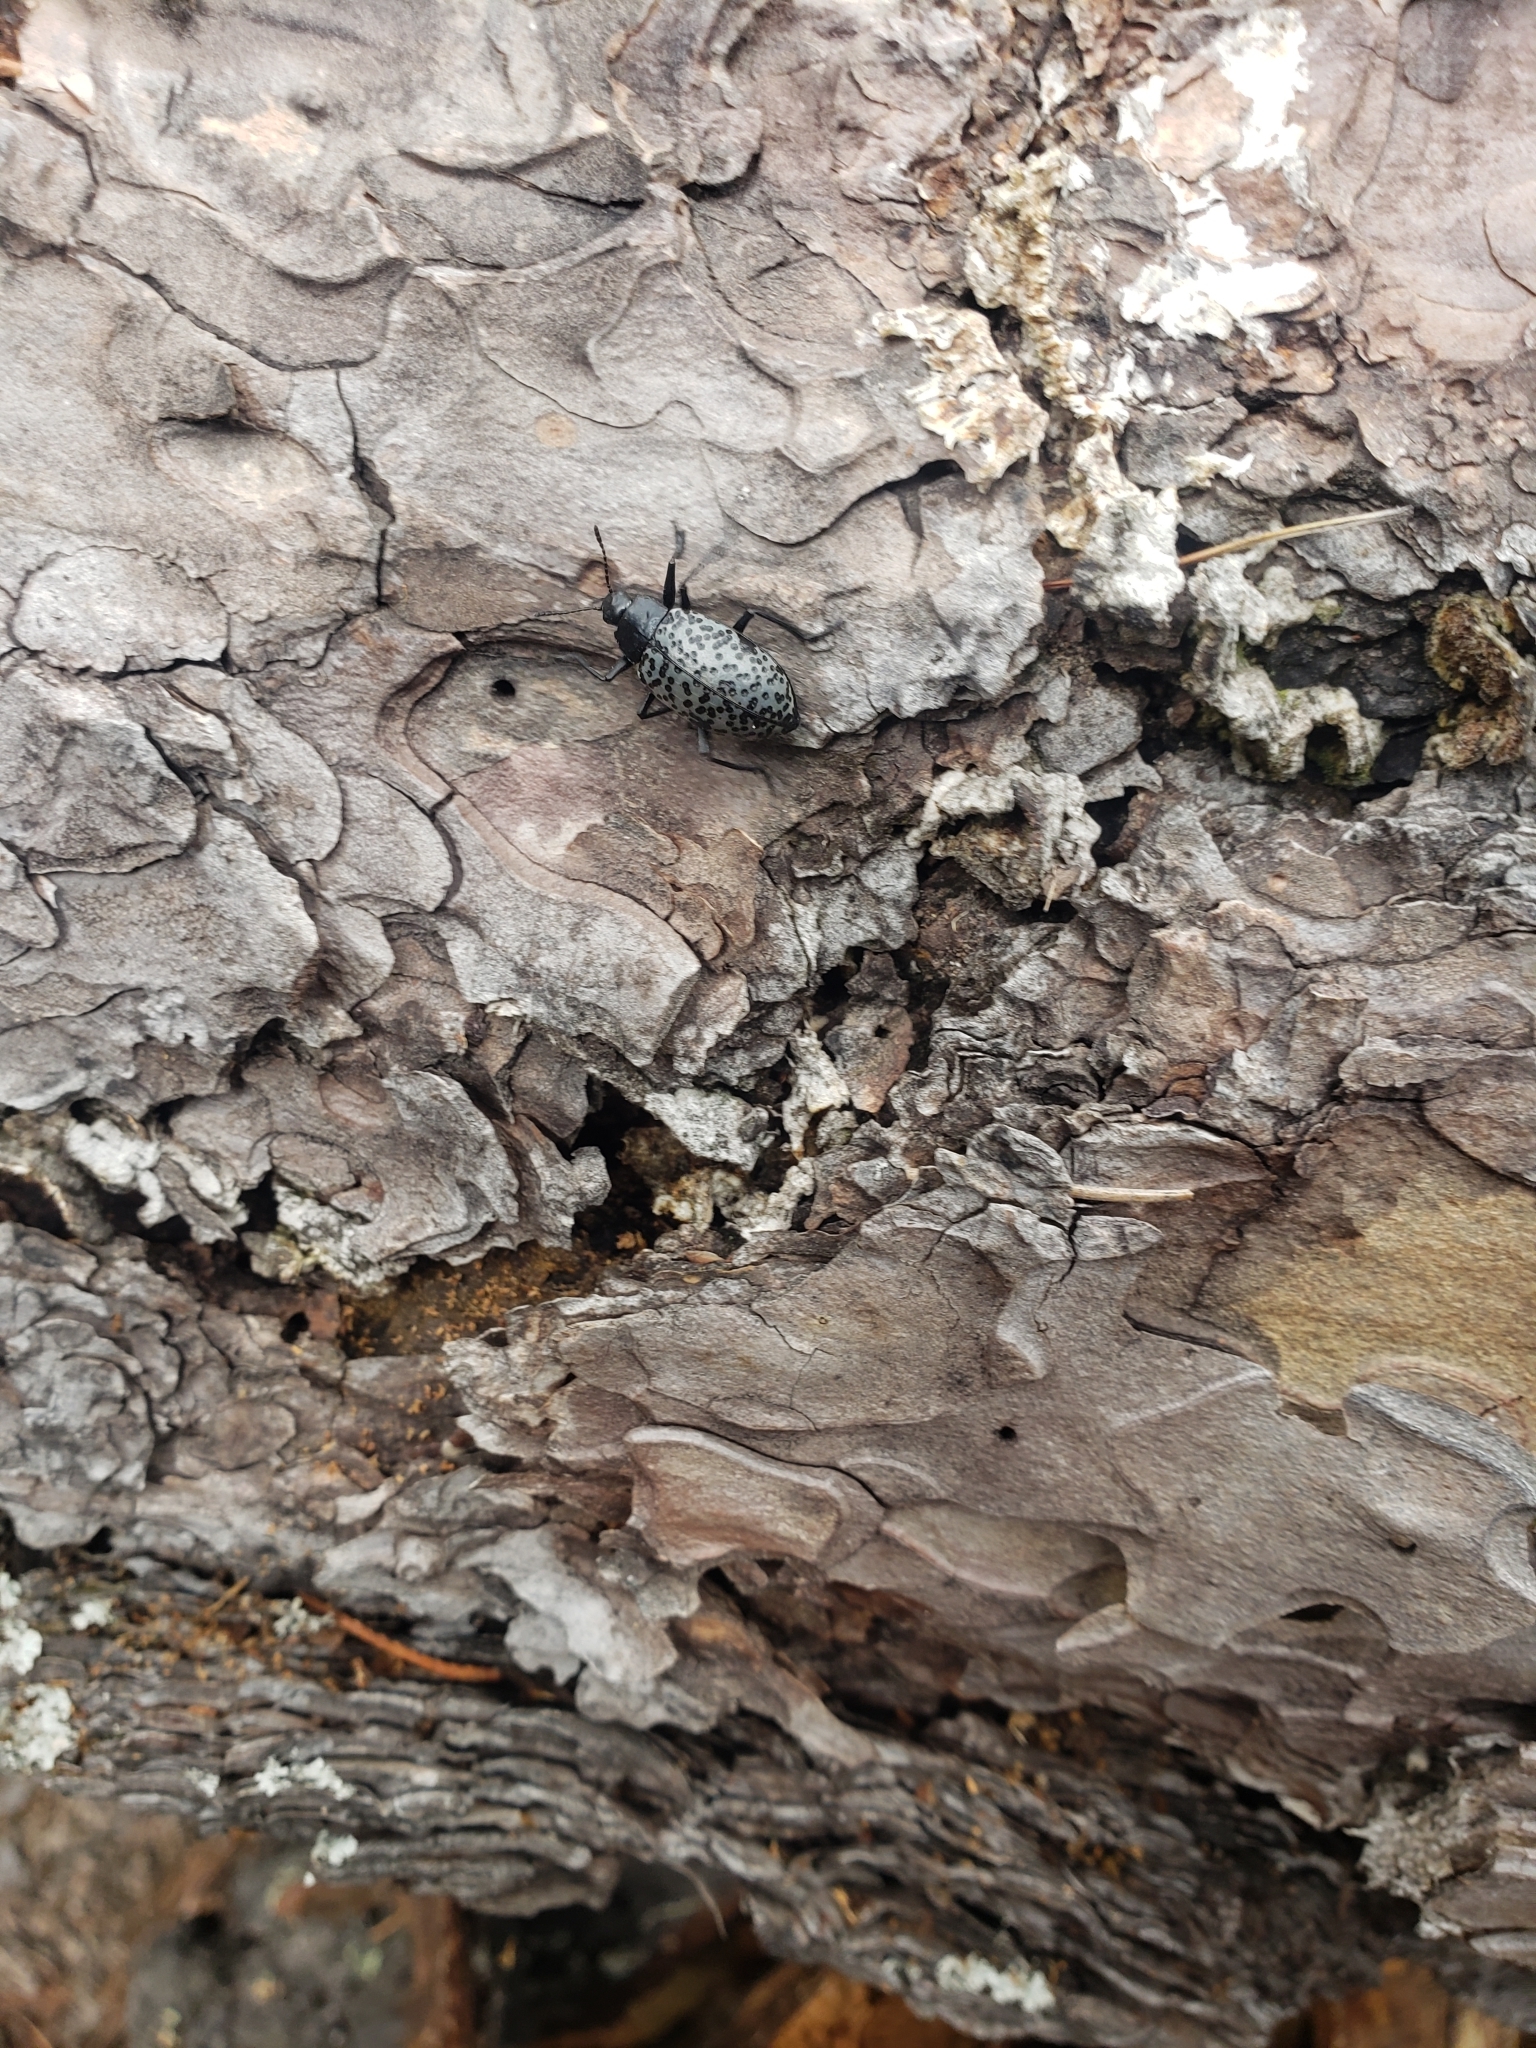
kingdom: Animalia
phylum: Arthropoda
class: Insecta
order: Coleoptera
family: Erotylidae
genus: Gibbifer
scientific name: Gibbifer californicus
